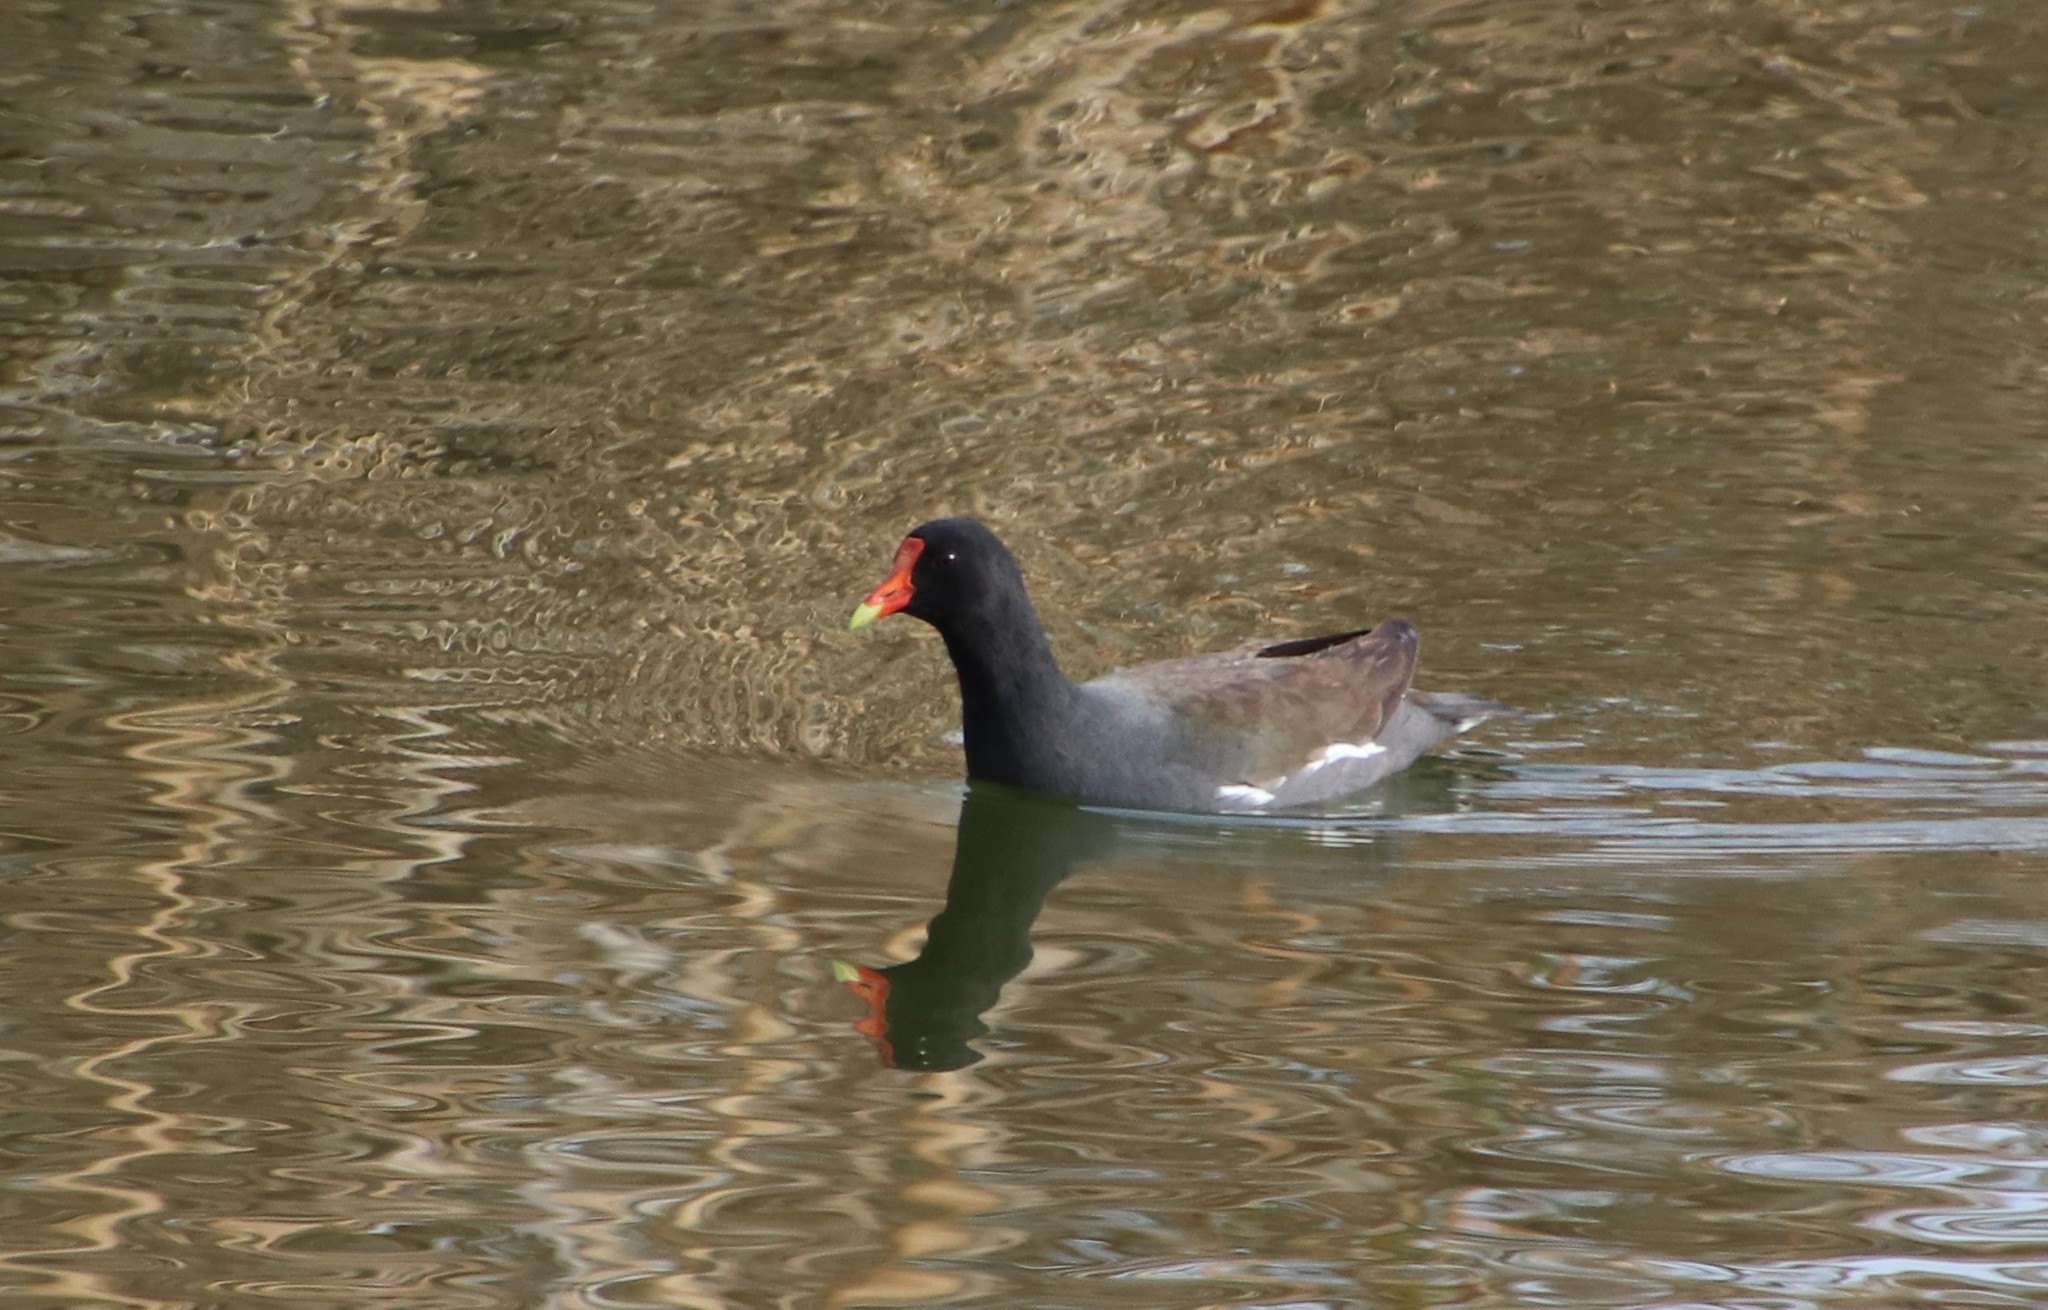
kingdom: Animalia
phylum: Chordata
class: Aves
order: Gruiformes
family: Rallidae
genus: Gallinula
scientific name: Gallinula chloropus
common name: Common moorhen
